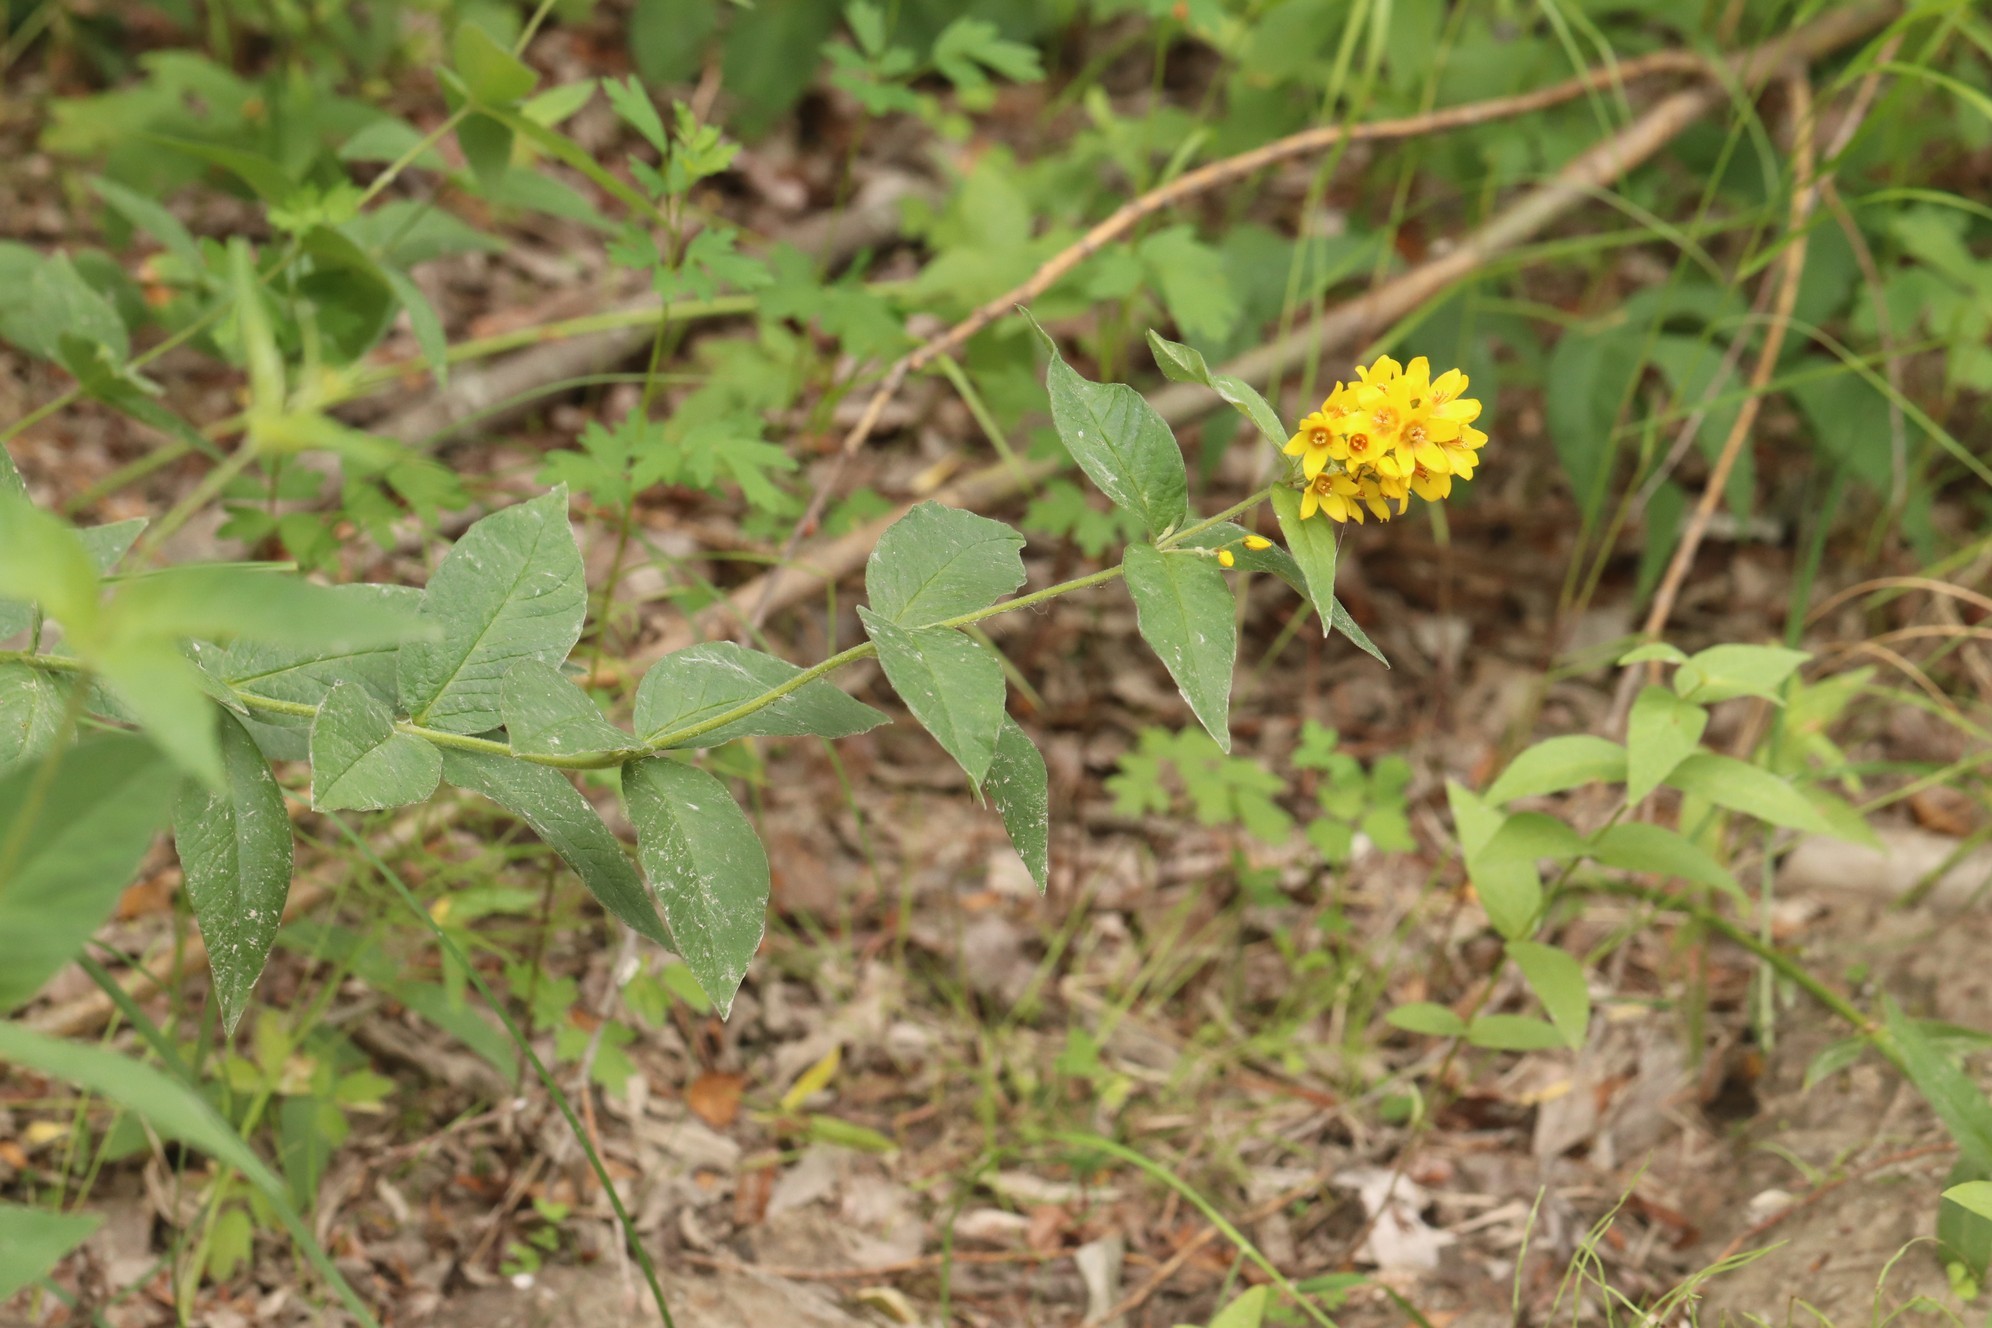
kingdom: Plantae
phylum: Tracheophyta
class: Magnoliopsida
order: Ericales
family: Primulaceae
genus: Lysimachia
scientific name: Lysimachia vulgaris
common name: Yellow loosestrife
